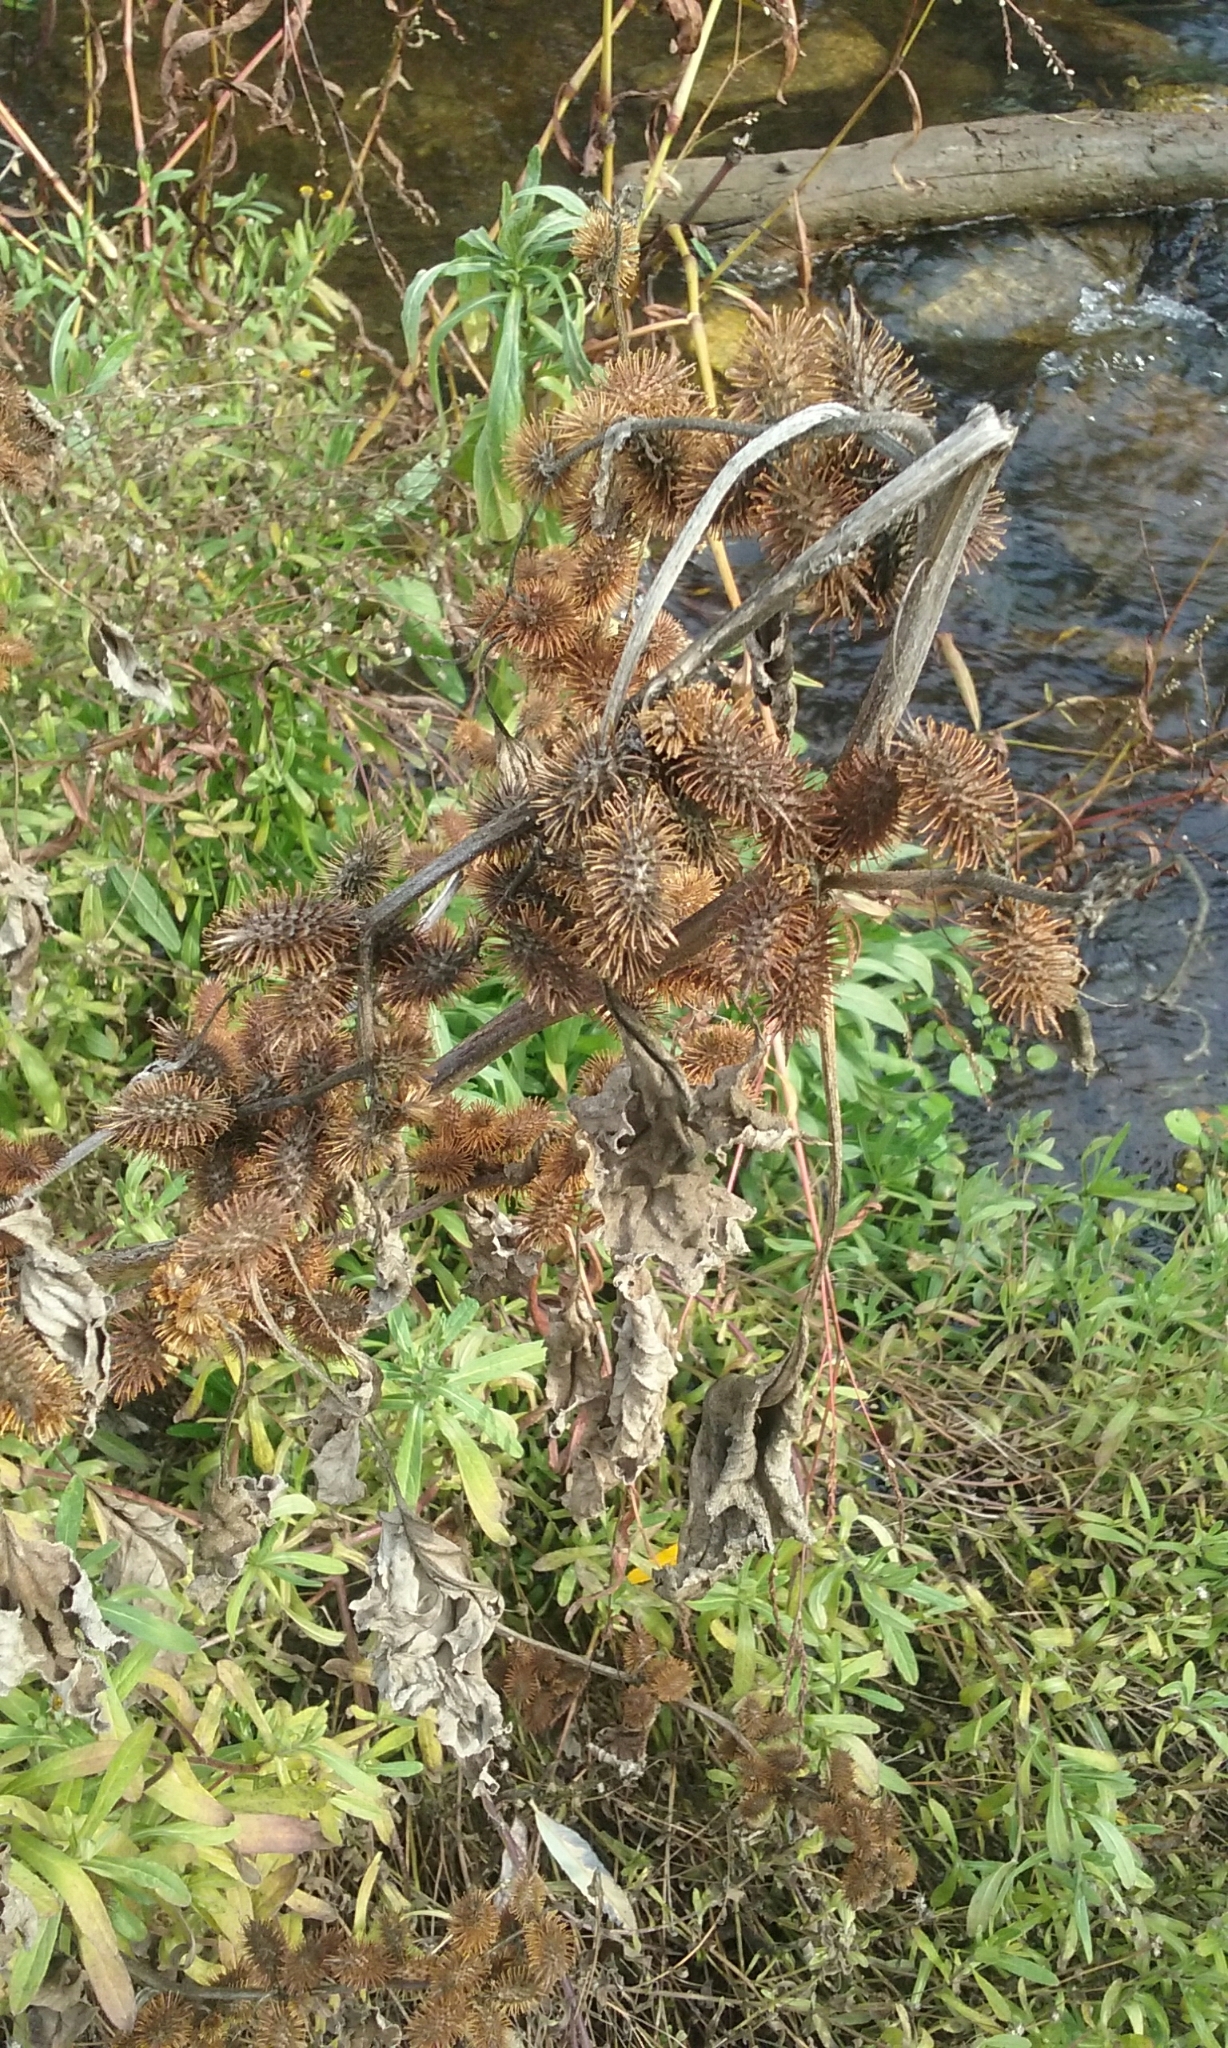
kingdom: Plantae
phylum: Tracheophyta
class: Magnoliopsida
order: Asterales
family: Asteraceae
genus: Xanthium
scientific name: Xanthium strumarium
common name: Rough cocklebur
